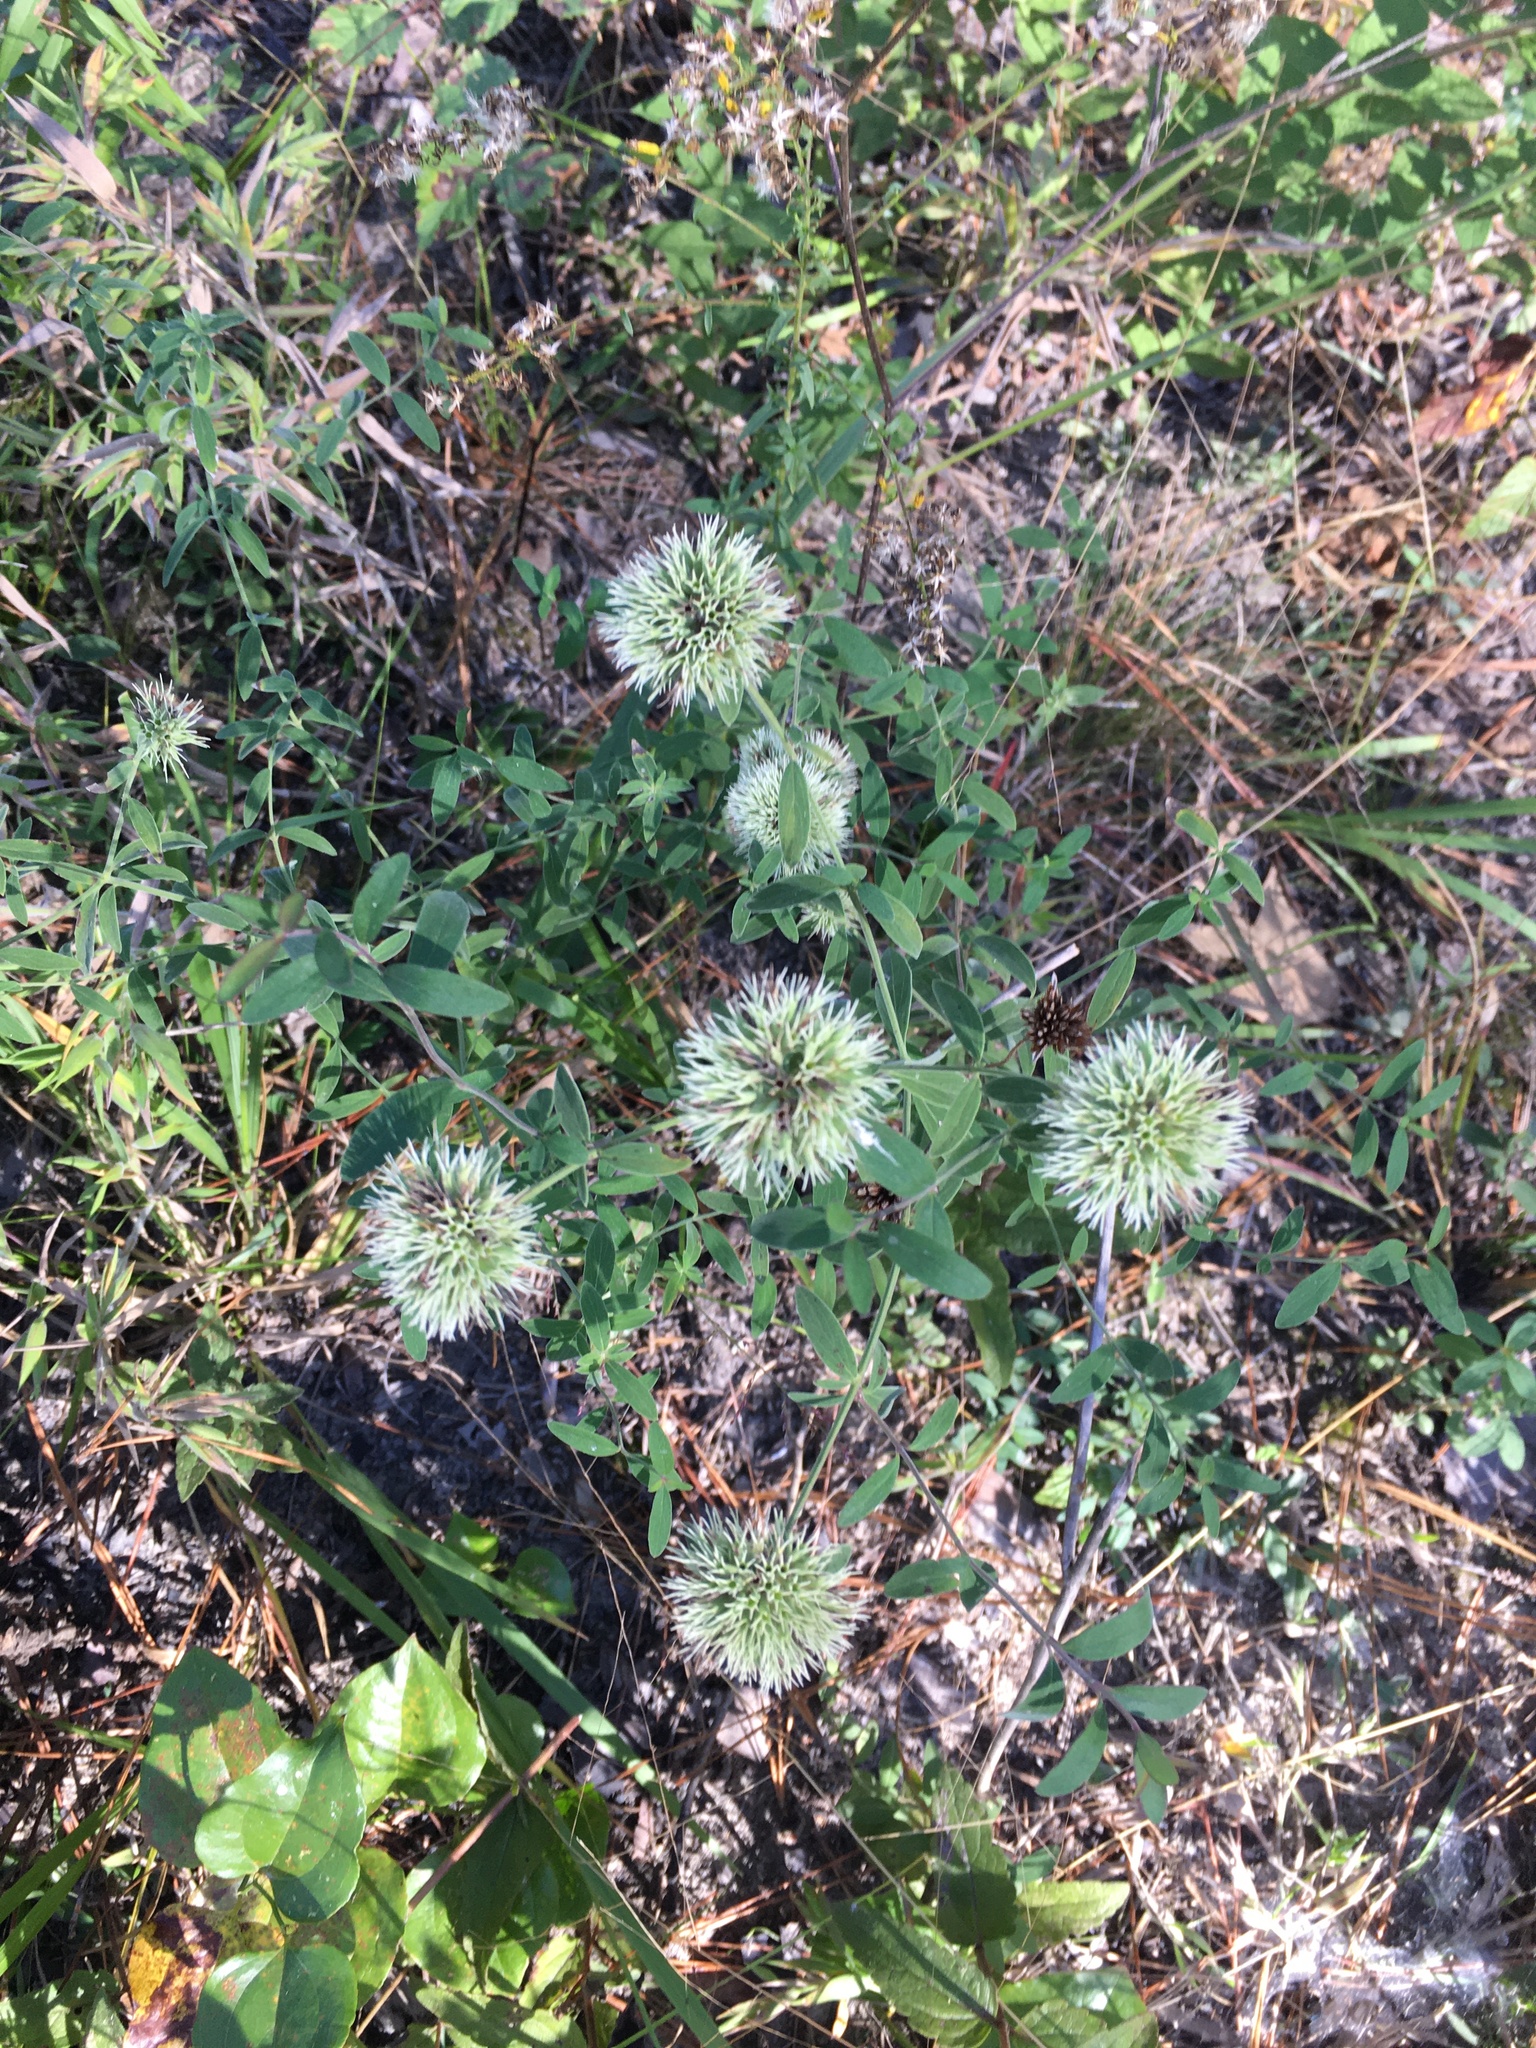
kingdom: Plantae
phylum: Tracheophyta
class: Magnoliopsida
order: Lamiales
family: Lamiaceae
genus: Pycnanthemum
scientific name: Pycnanthemum flexuosum
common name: Appalachian mountain-mint
